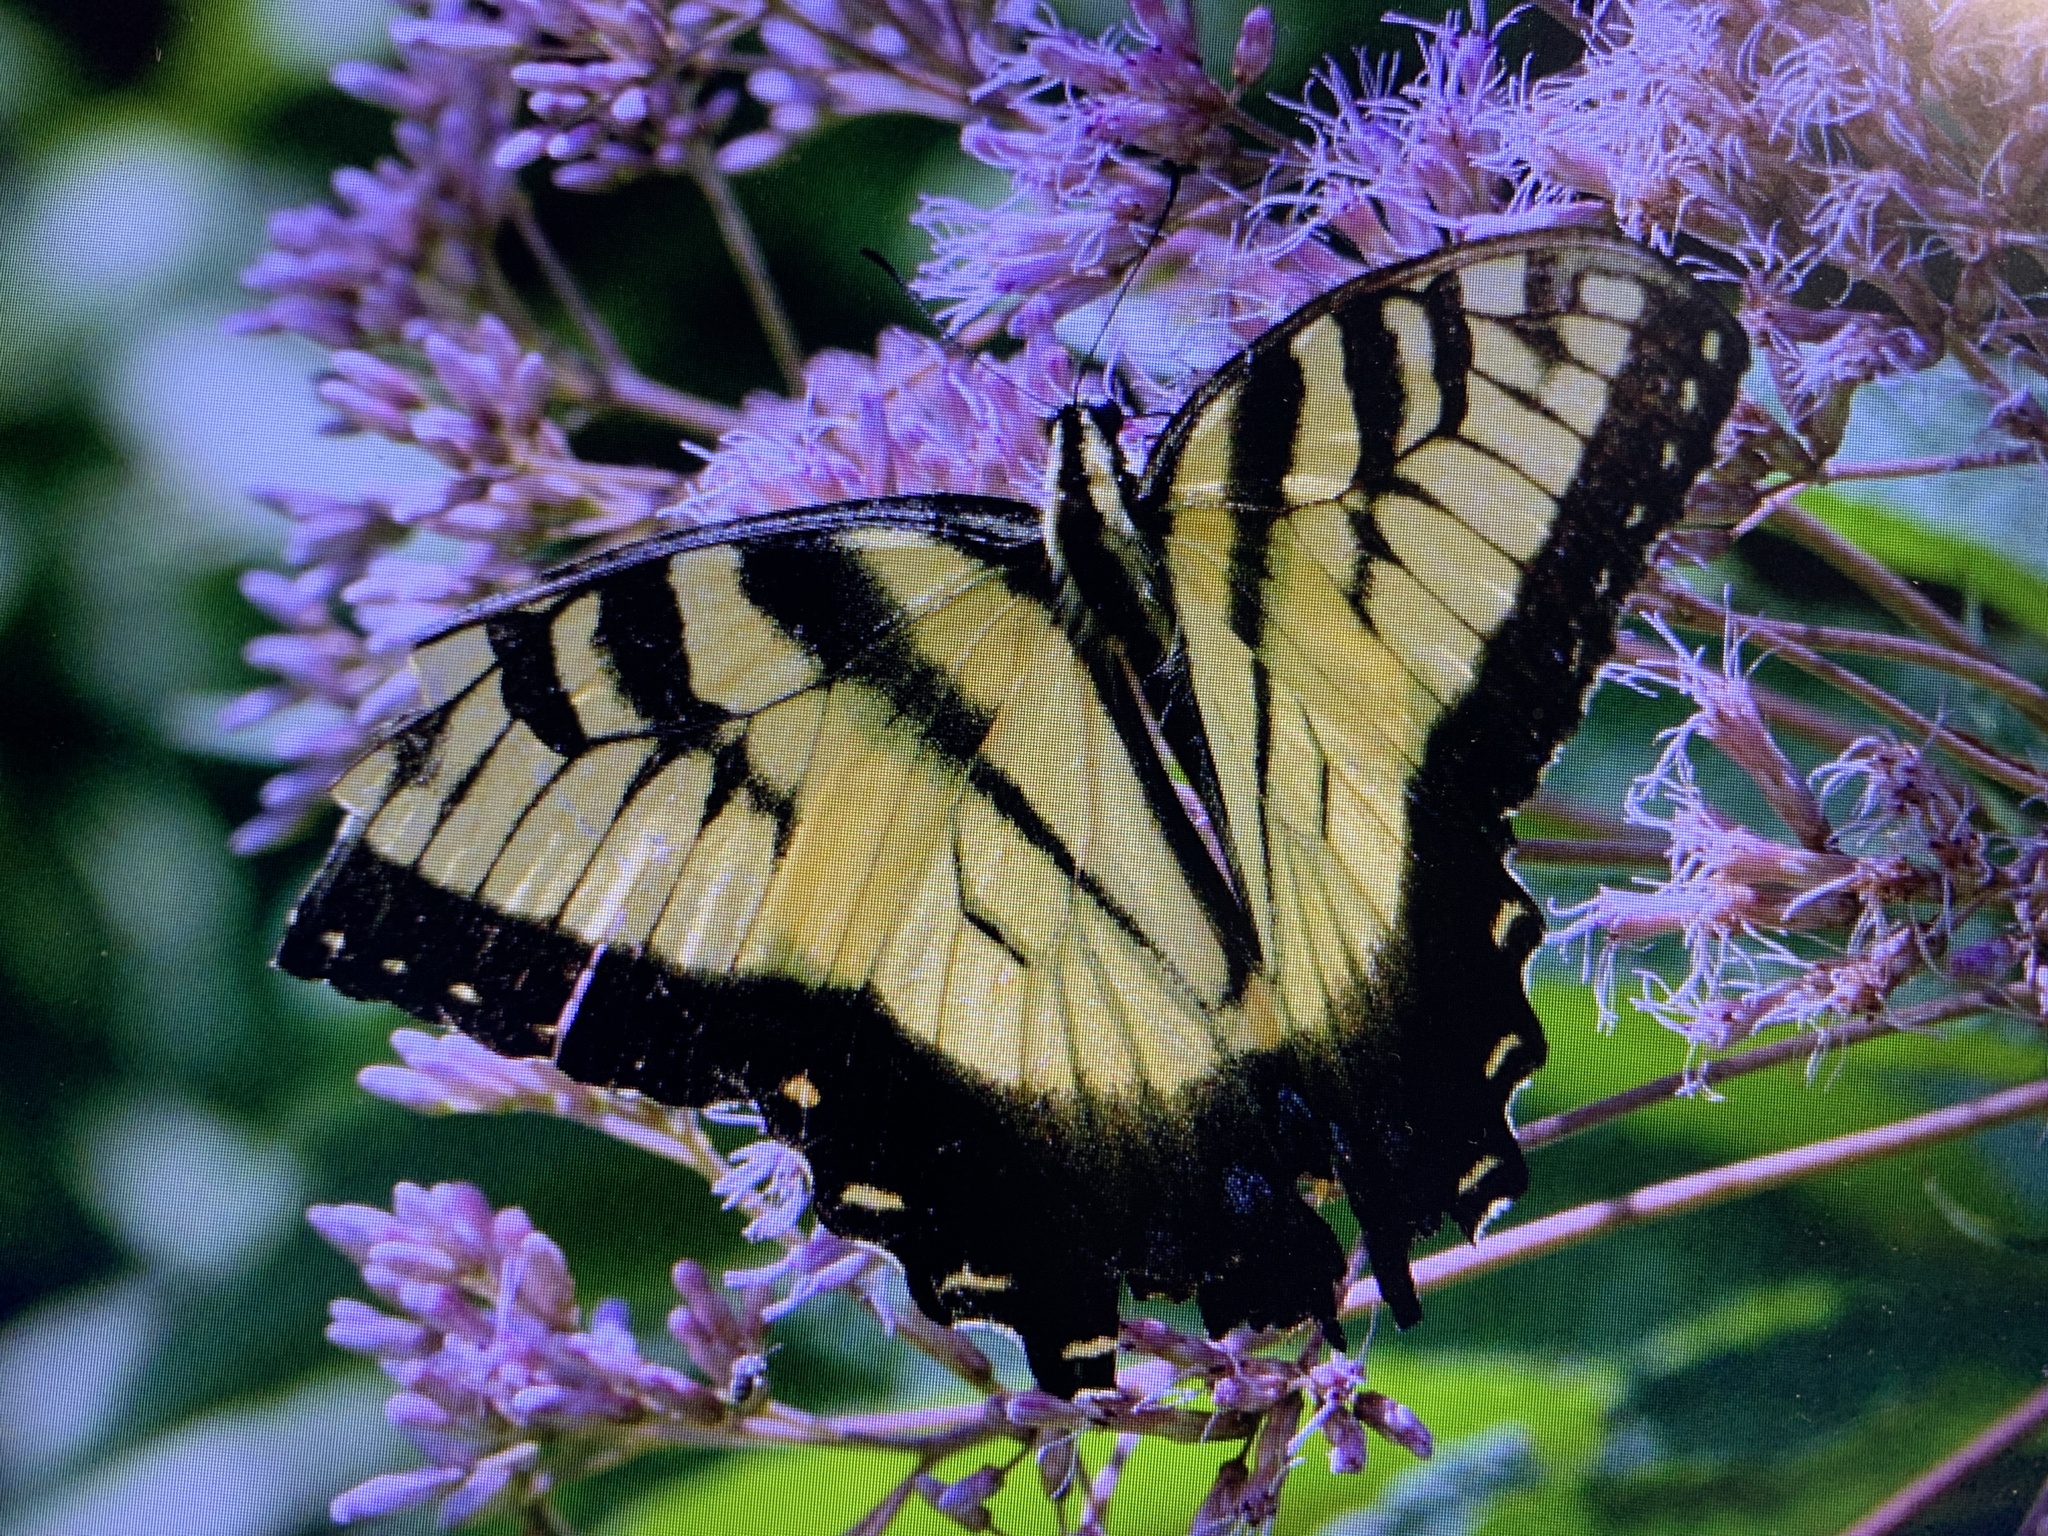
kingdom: Animalia
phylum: Arthropoda
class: Insecta
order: Lepidoptera
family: Papilionidae
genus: Papilio
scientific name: Papilio glaucus
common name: Tiger swallowtail
